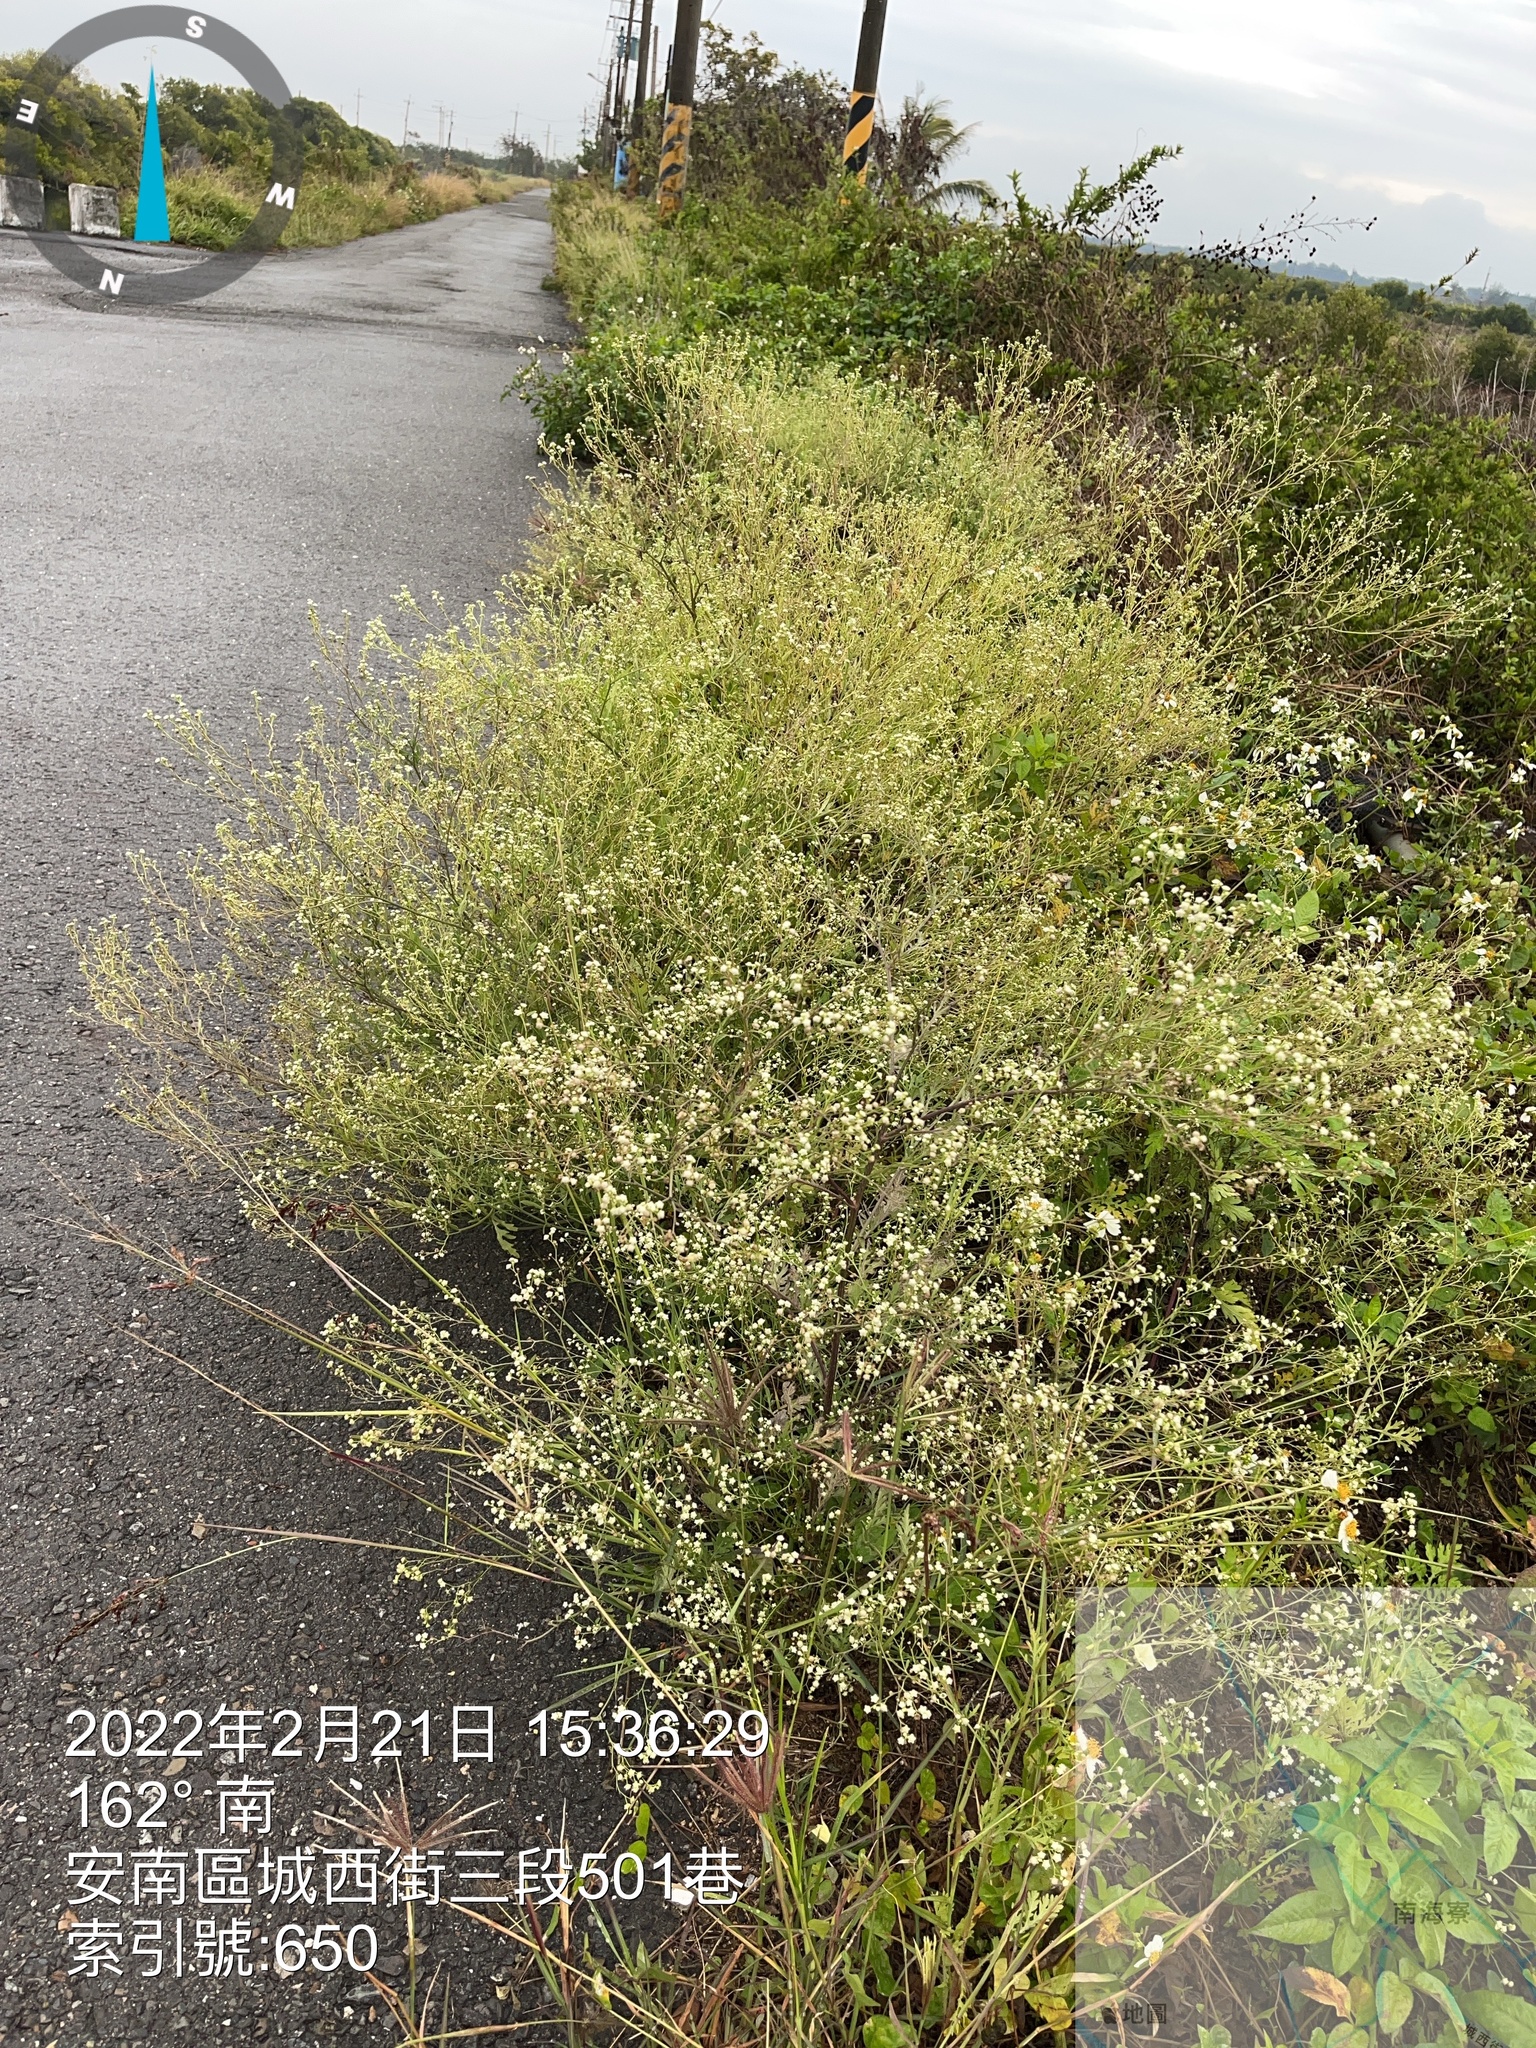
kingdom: Plantae
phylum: Tracheophyta
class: Magnoliopsida
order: Asterales
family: Asteraceae
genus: Parthenium
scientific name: Parthenium hysterophorus
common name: Santa maria feverfew
